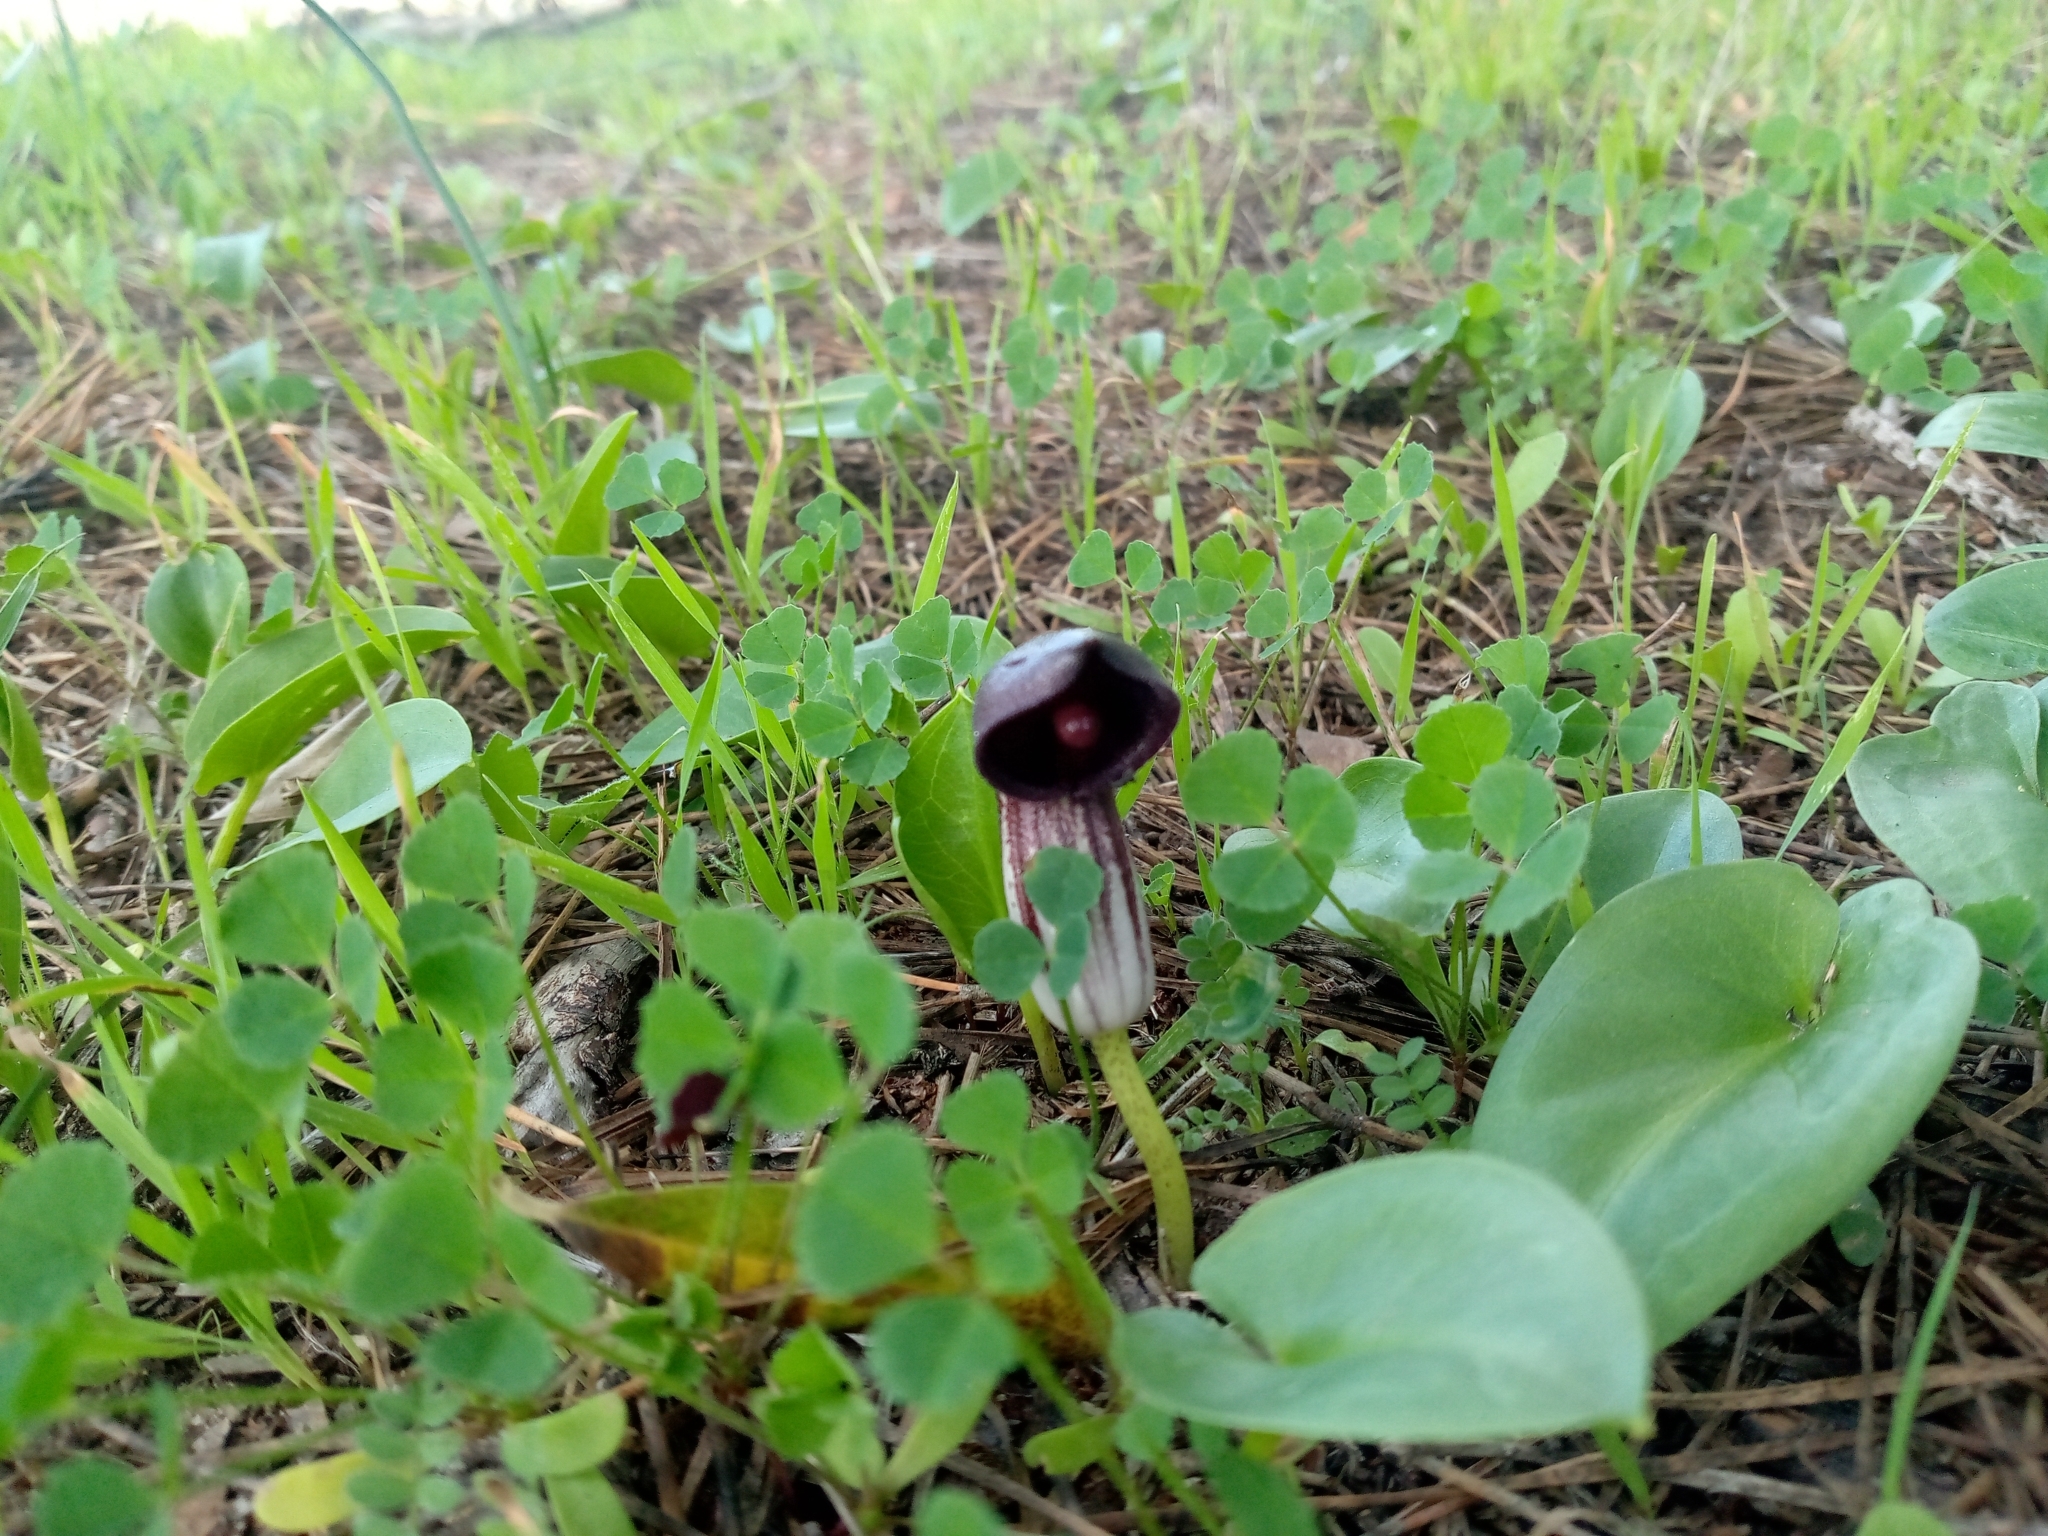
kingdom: Plantae
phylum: Tracheophyta
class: Liliopsida
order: Alismatales
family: Araceae
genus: Arisarum
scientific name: Arisarum simorrhinum
